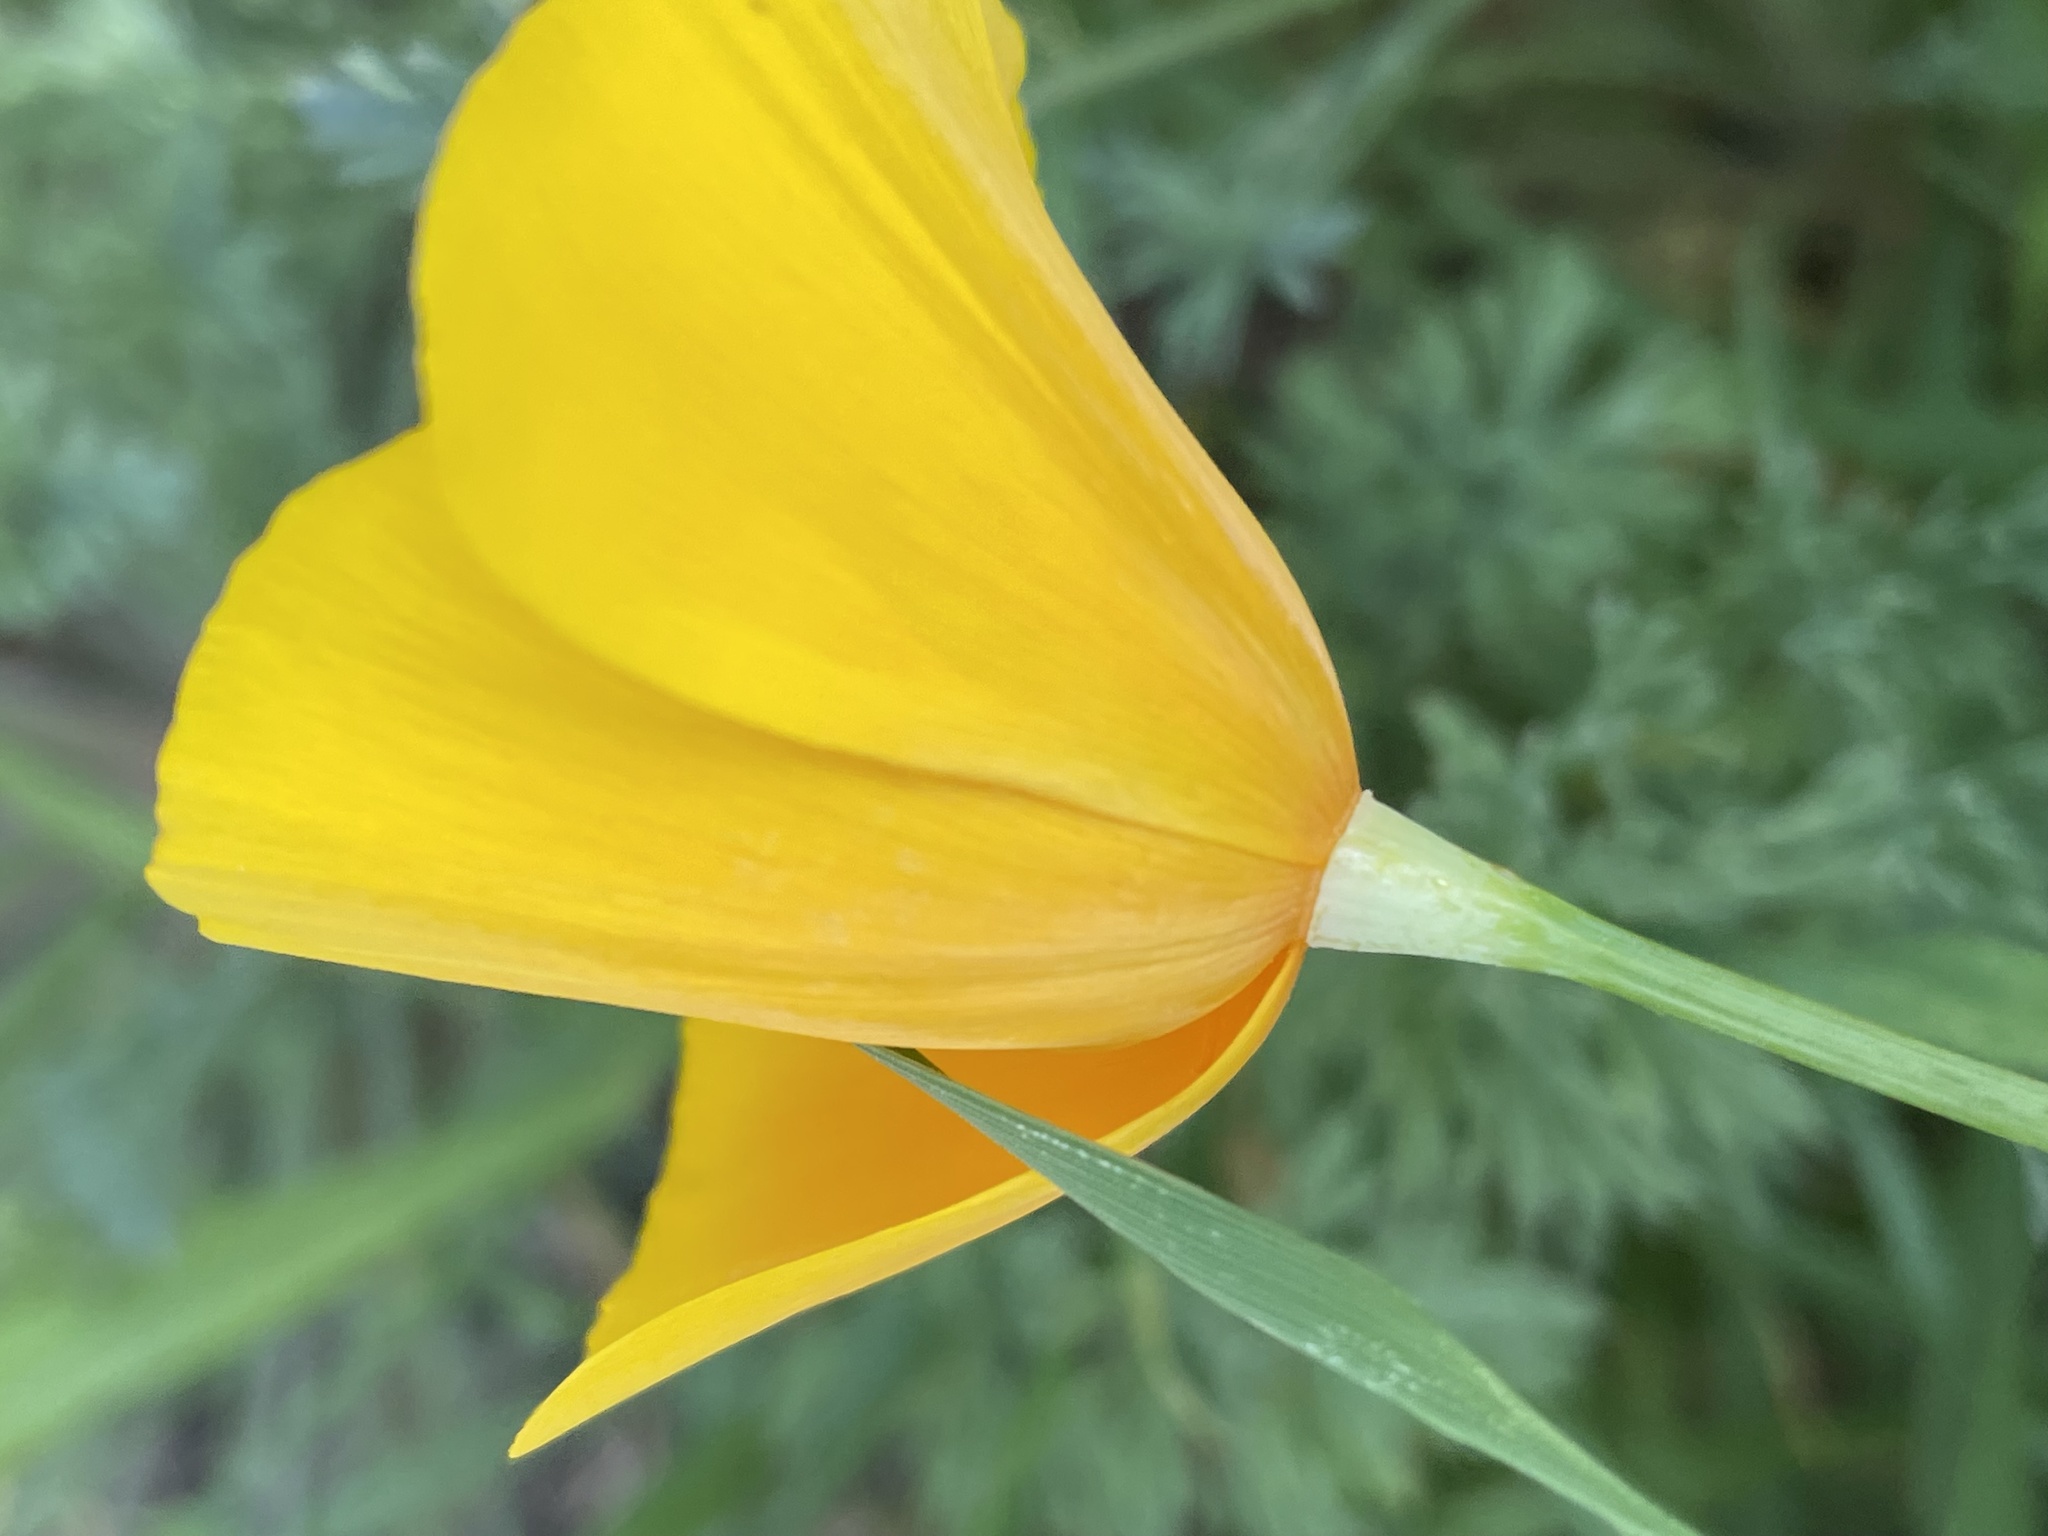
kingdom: Plantae
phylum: Tracheophyta
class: Magnoliopsida
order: Ranunculales
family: Papaveraceae
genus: Eschscholzia
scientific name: Eschscholzia caespitosa
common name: Tufted california-poppy
